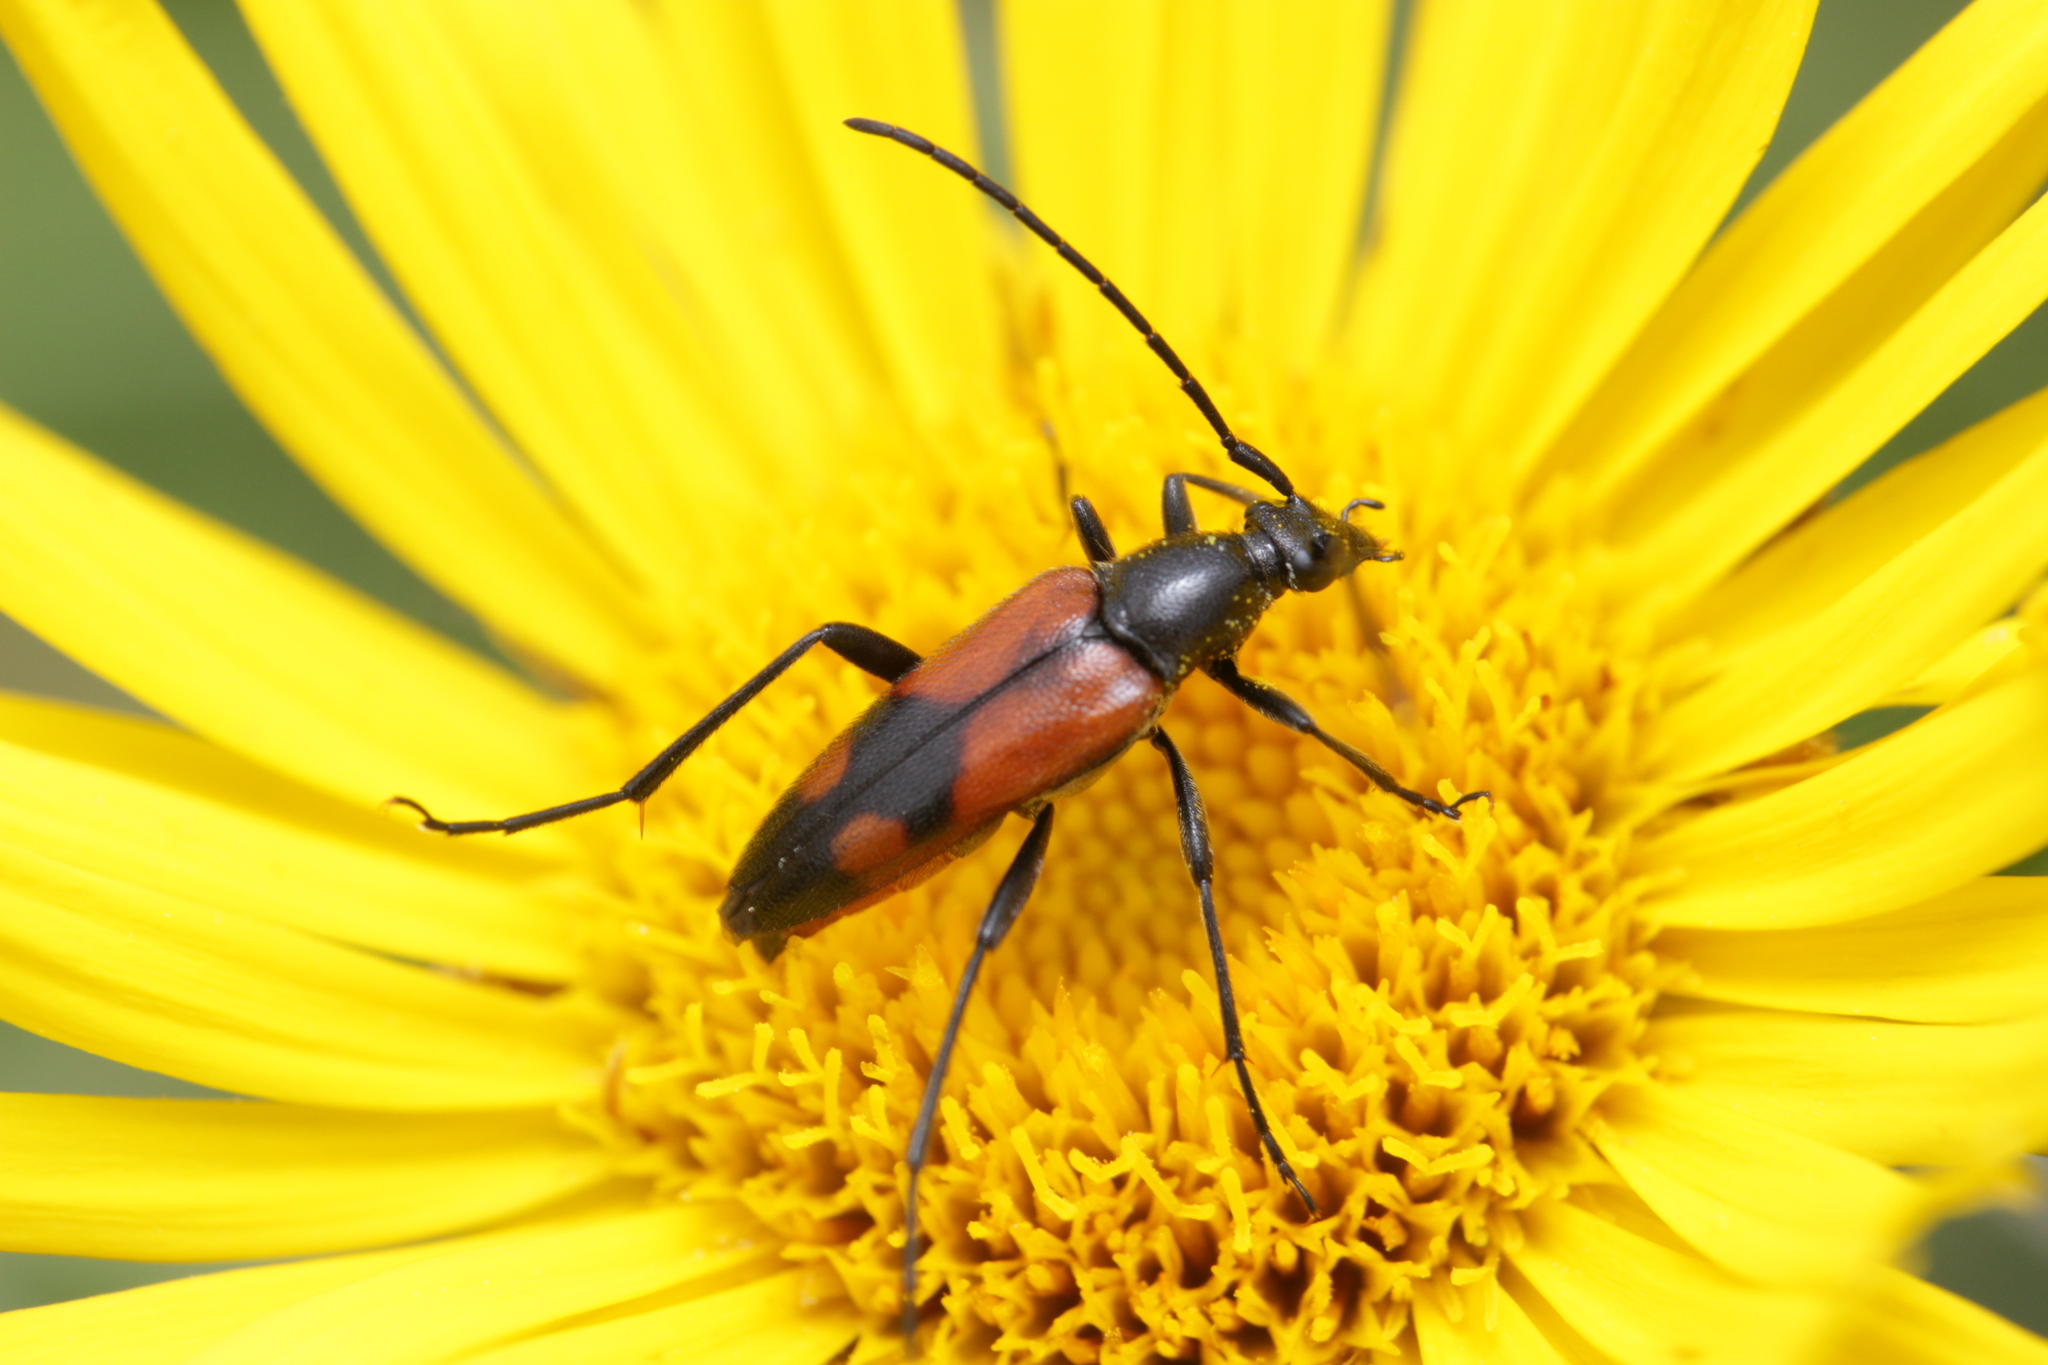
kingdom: Animalia
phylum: Arthropoda
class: Insecta
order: Coleoptera
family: Cerambycidae
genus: Stenurella
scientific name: Stenurella bifasciata
